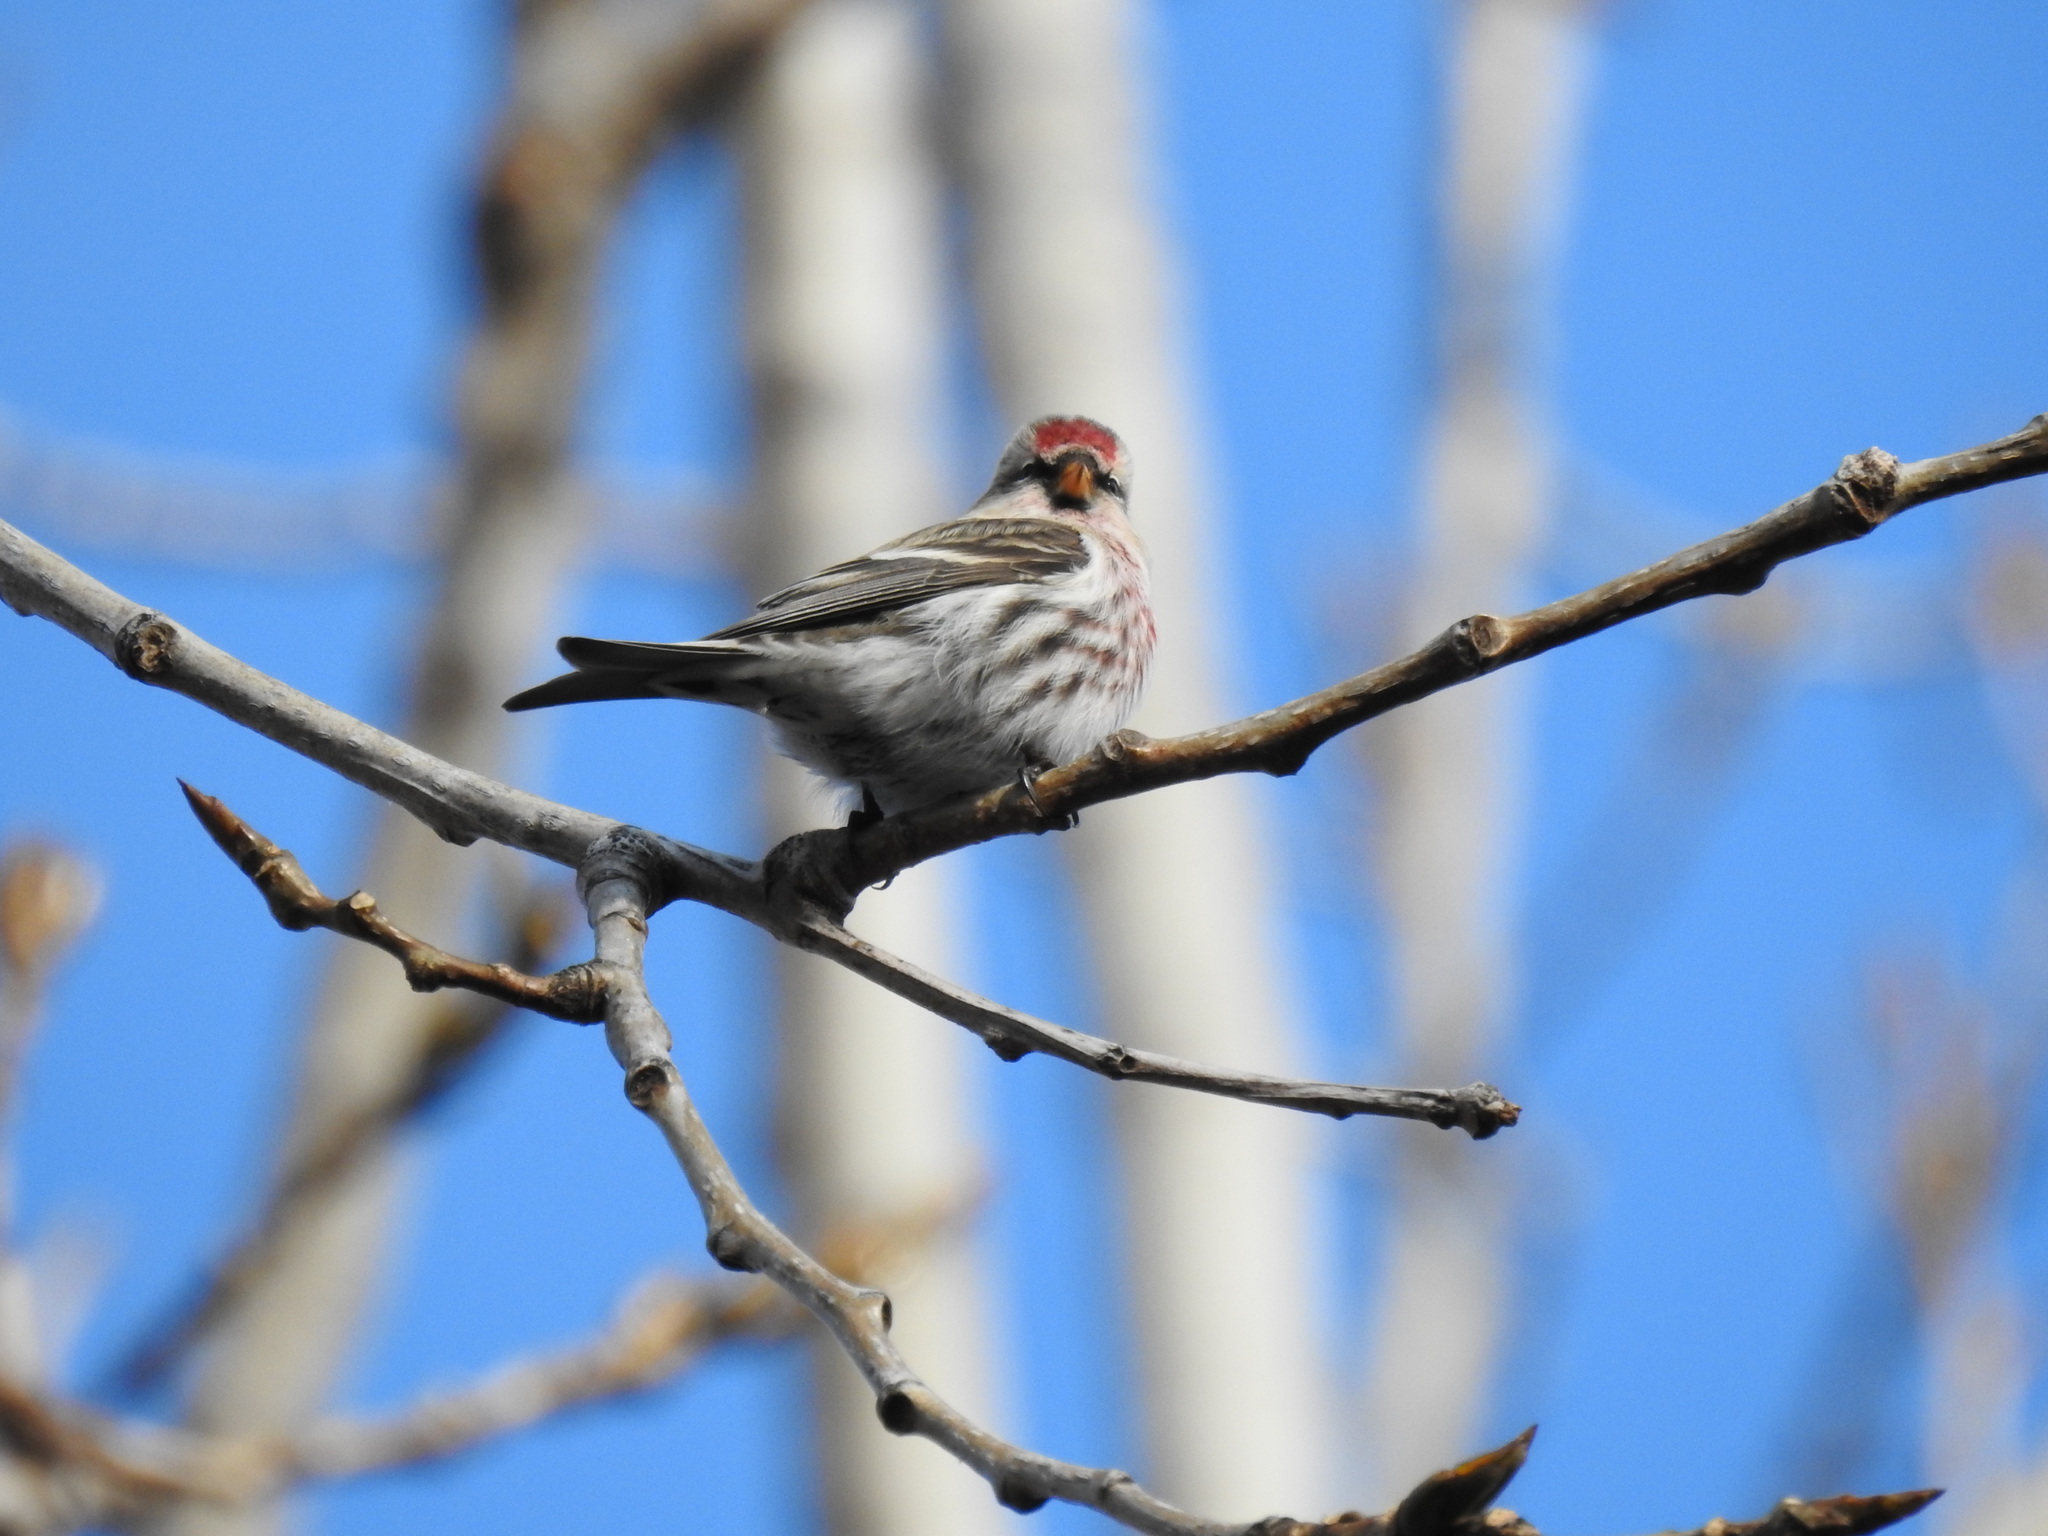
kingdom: Animalia
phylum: Chordata
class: Aves
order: Passeriformes
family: Fringillidae
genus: Acanthis
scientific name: Acanthis flammea
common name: Common redpoll
